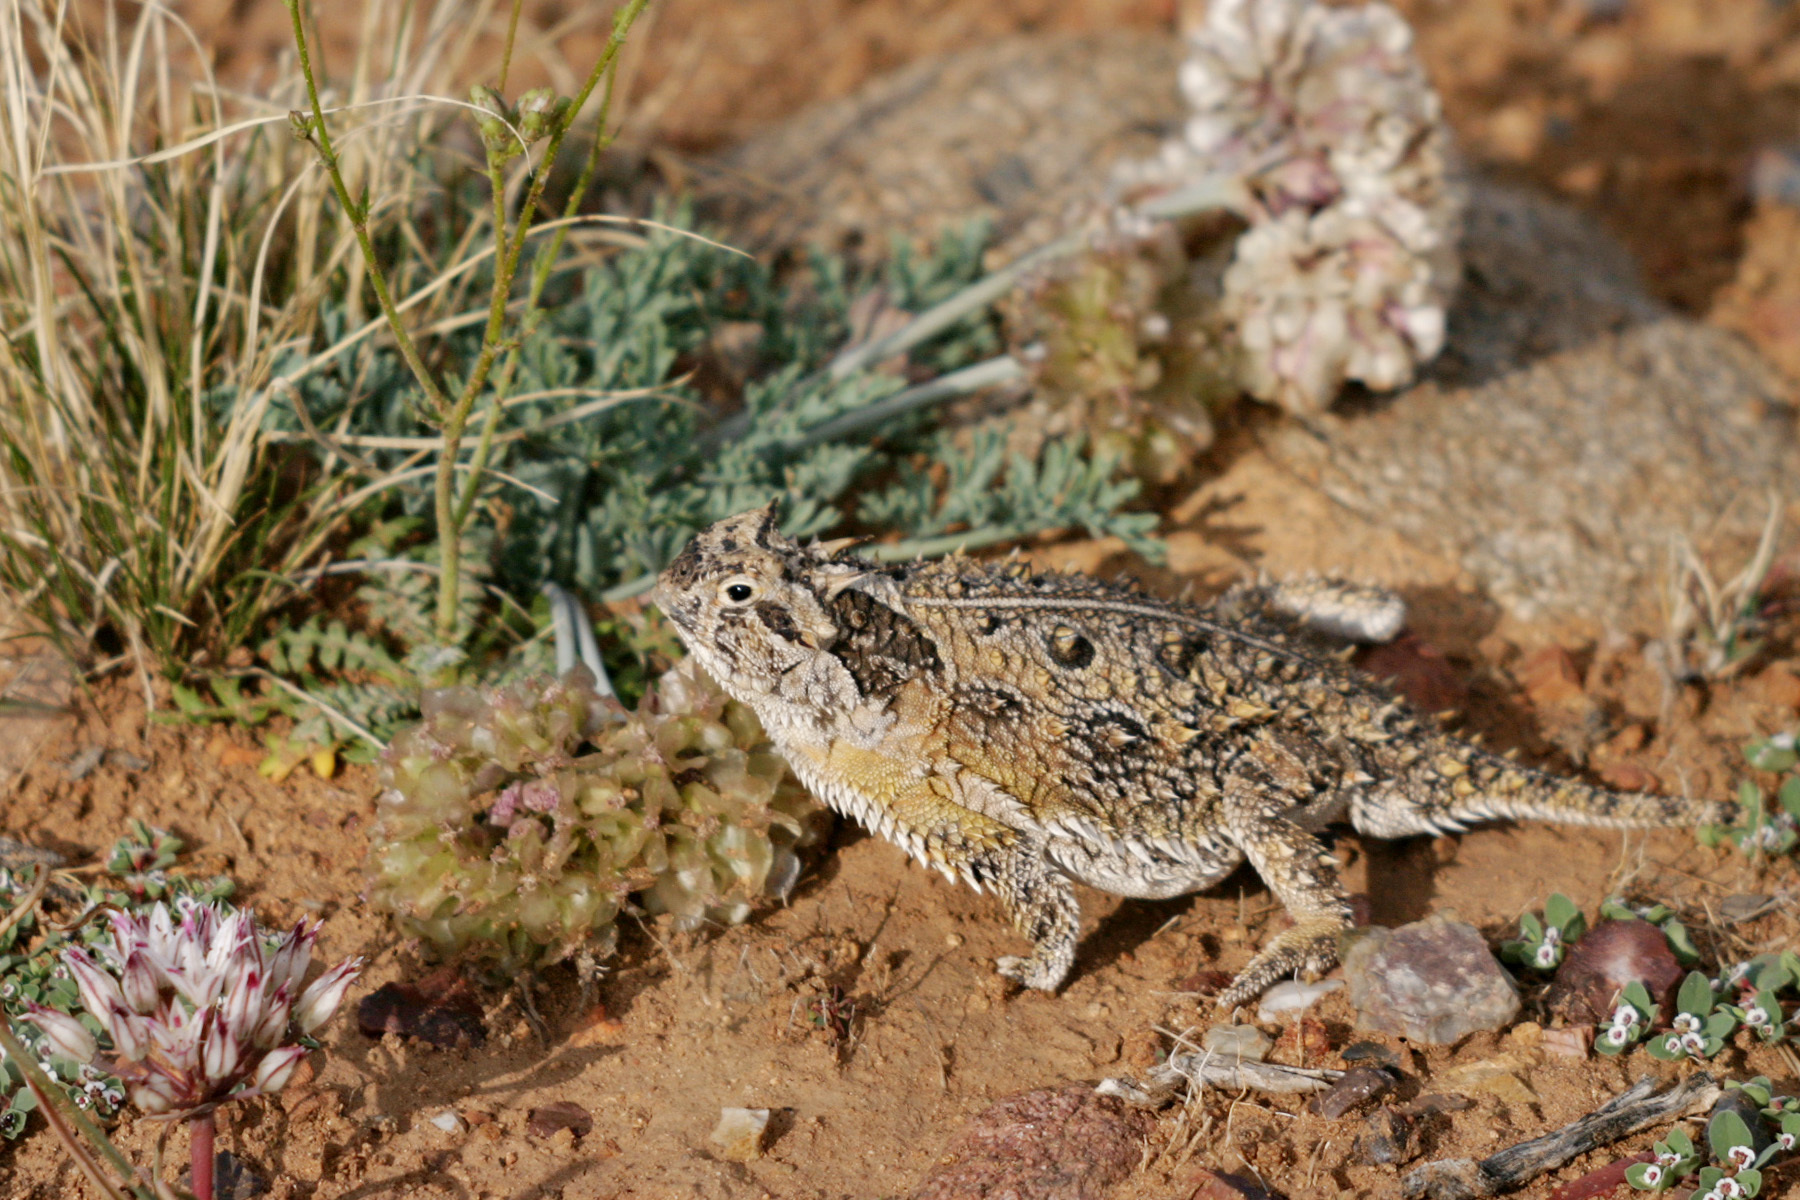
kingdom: Animalia
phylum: Chordata
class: Squamata
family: Phrynosomatidae
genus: Phrynosoma
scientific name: Phrynosoma cornutum
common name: Texas horned lizard
